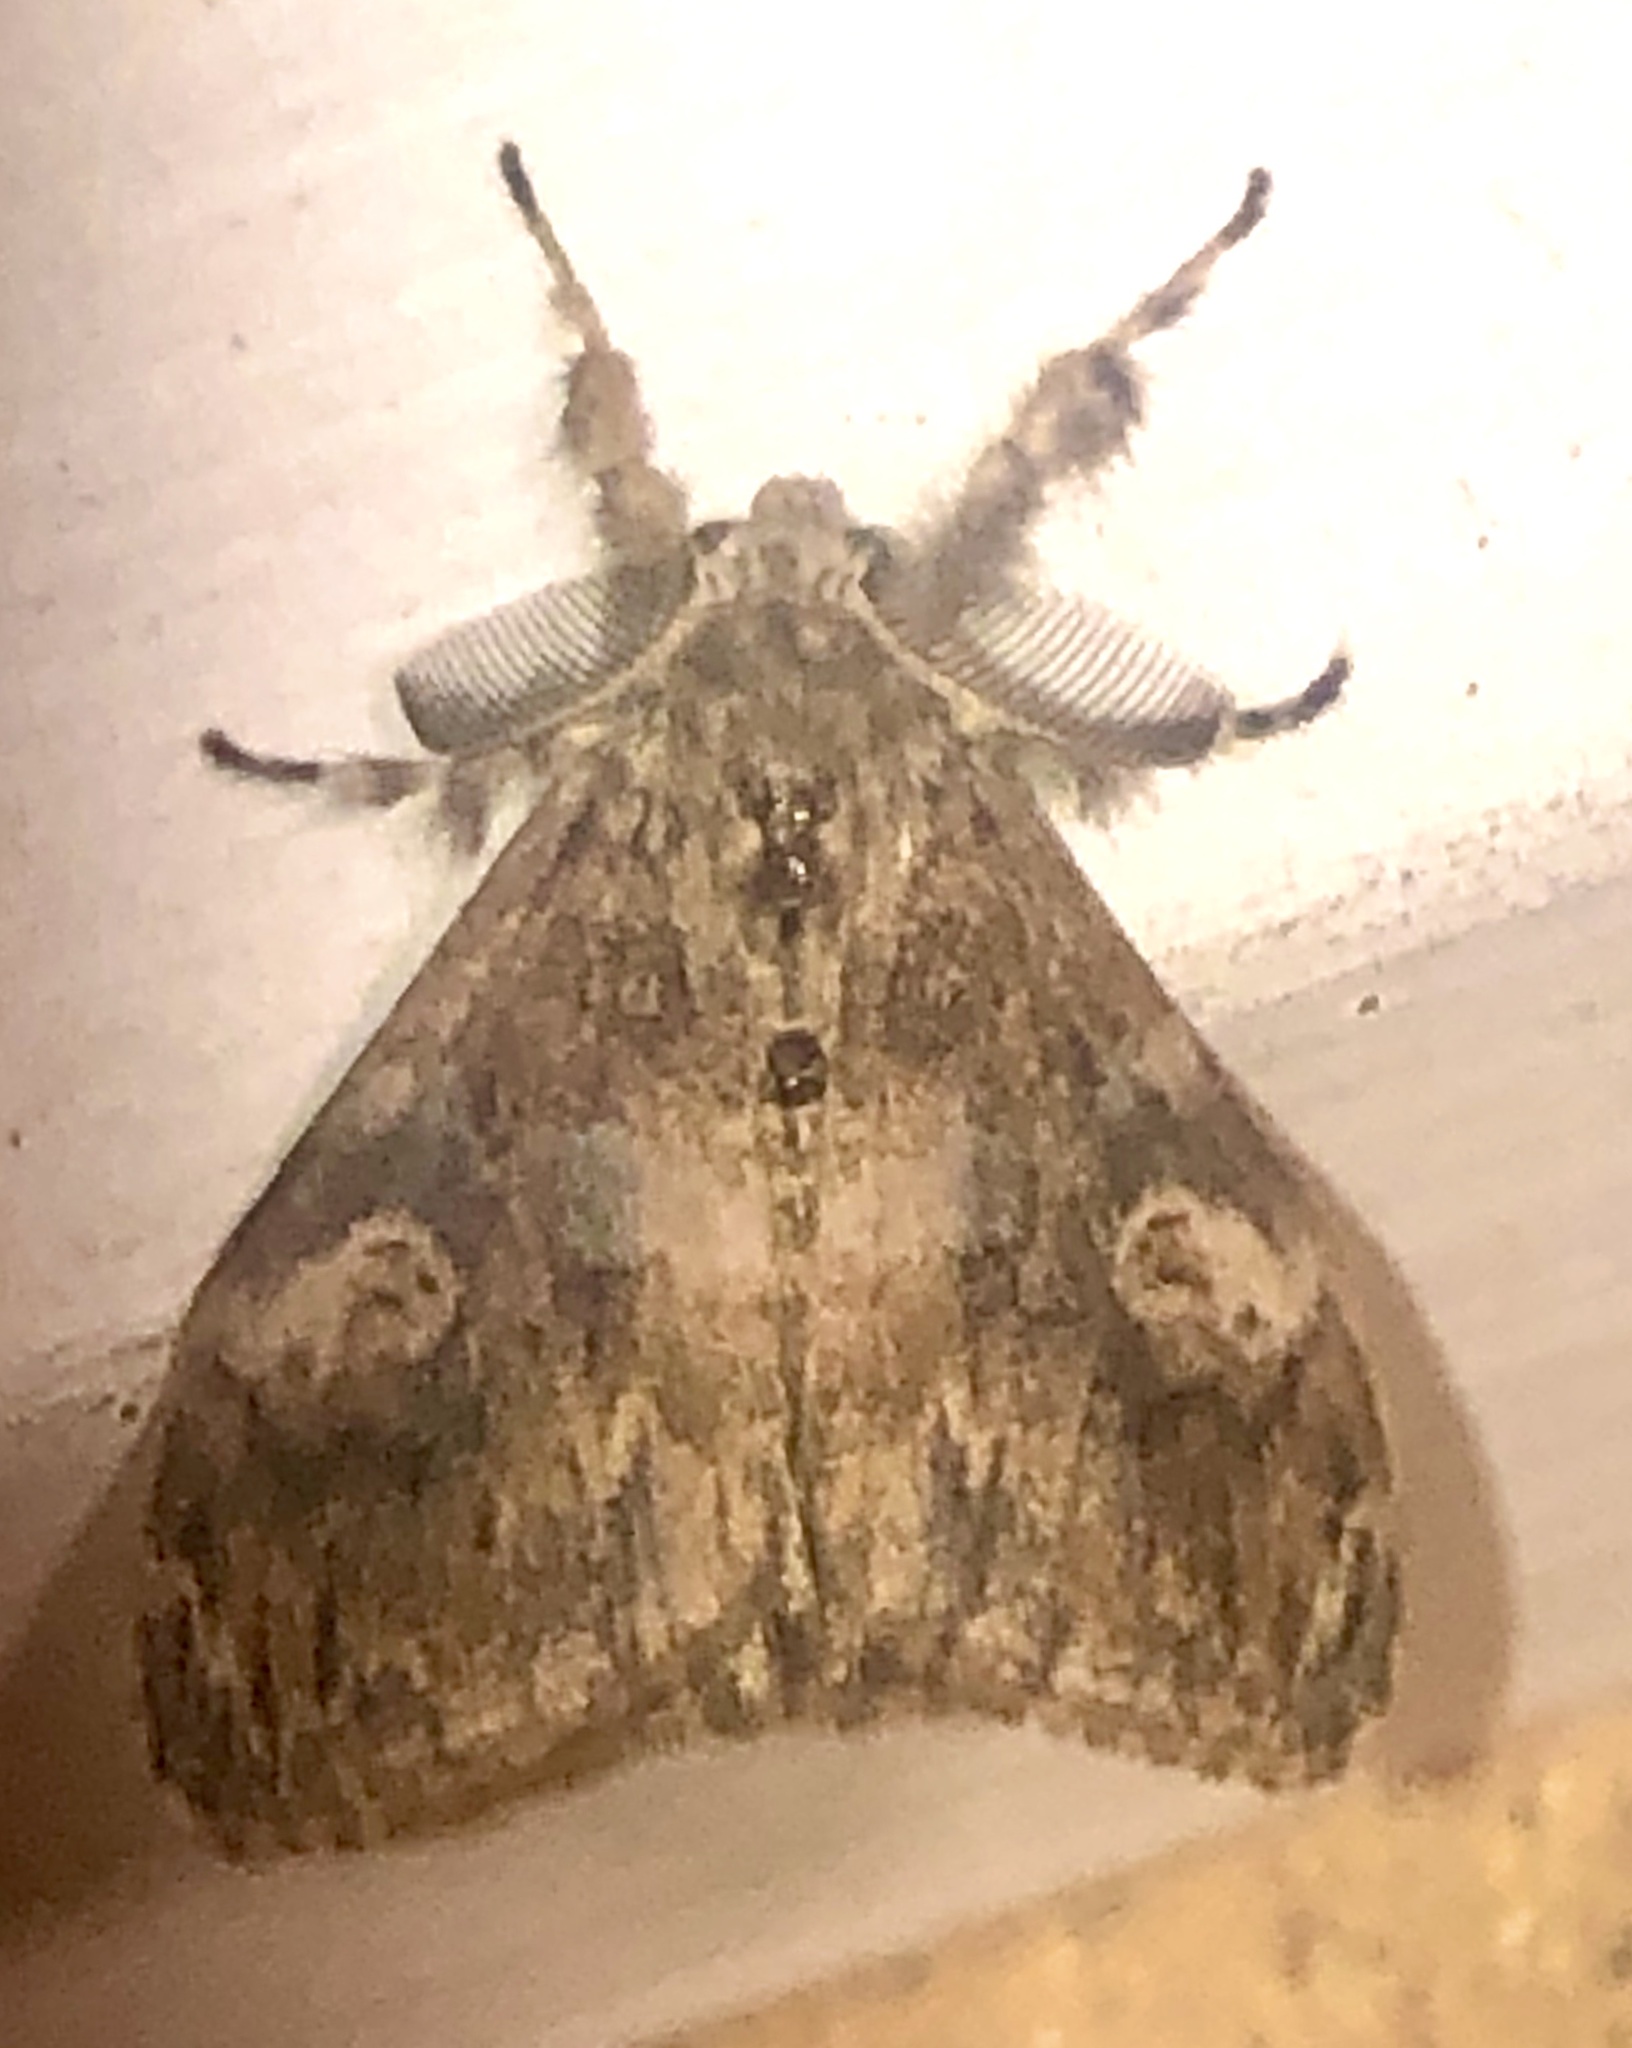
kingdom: Animalia
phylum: Arthropoda
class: Insecta
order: Lepidoptera
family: Erebidae
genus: Orgyia
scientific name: Orgyia australis
